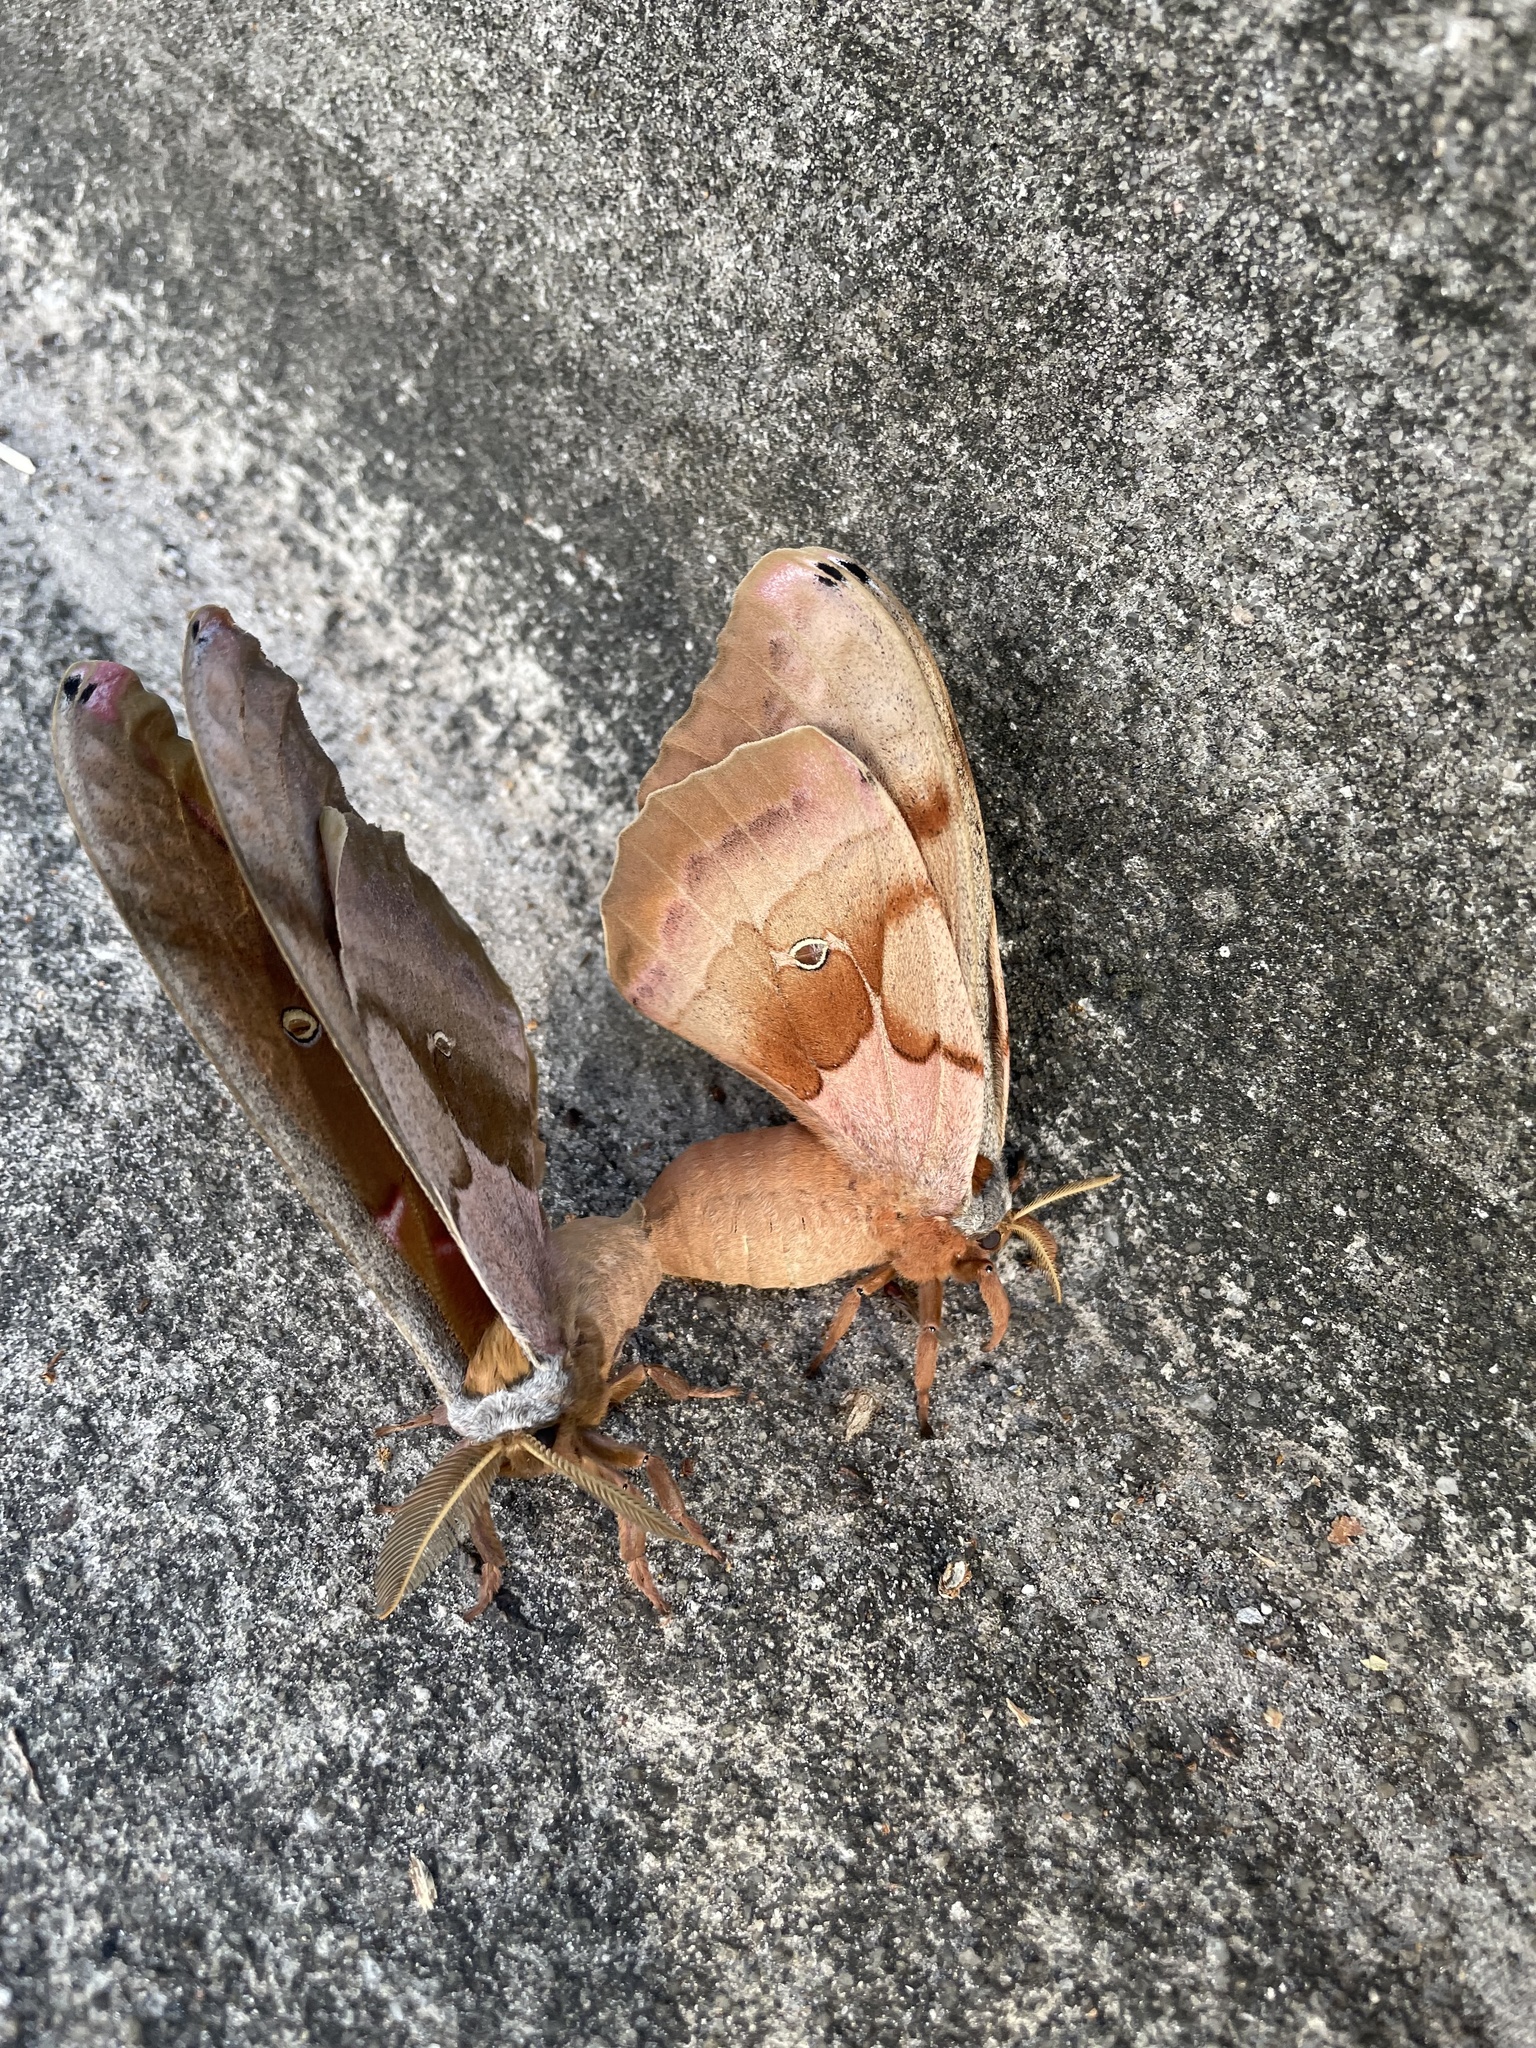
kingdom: Animalia
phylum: Arthropoda
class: Insecta
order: Lepidoptera
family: Saturniidae
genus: Antheraea
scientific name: Antheraea polyphemus
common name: Polyphemus moth
